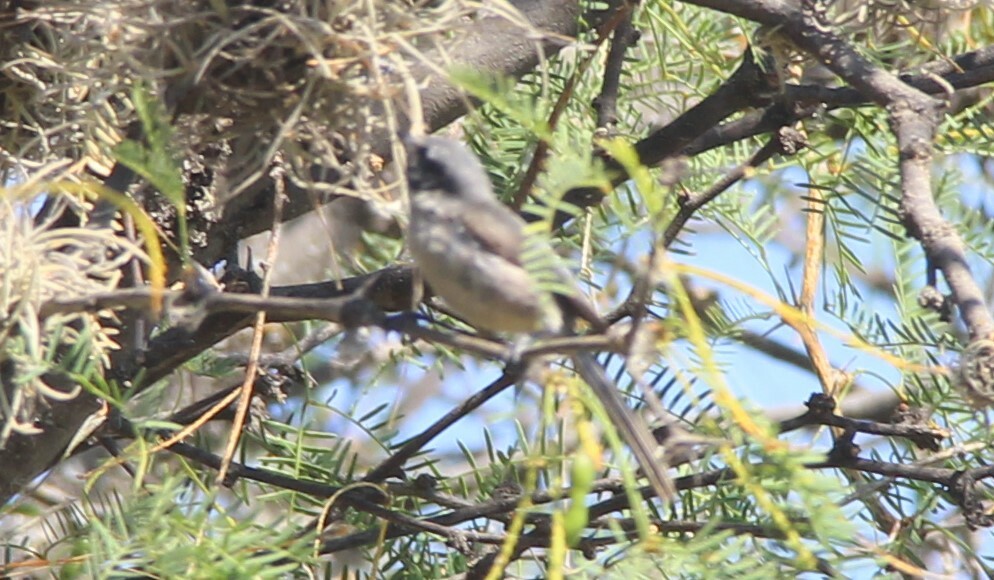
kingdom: Animalia
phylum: Chordata
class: Aves
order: Passeriformes
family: Aegithalidae
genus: Psaltriparus
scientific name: Psaltriparus minimus
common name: American bushtit
